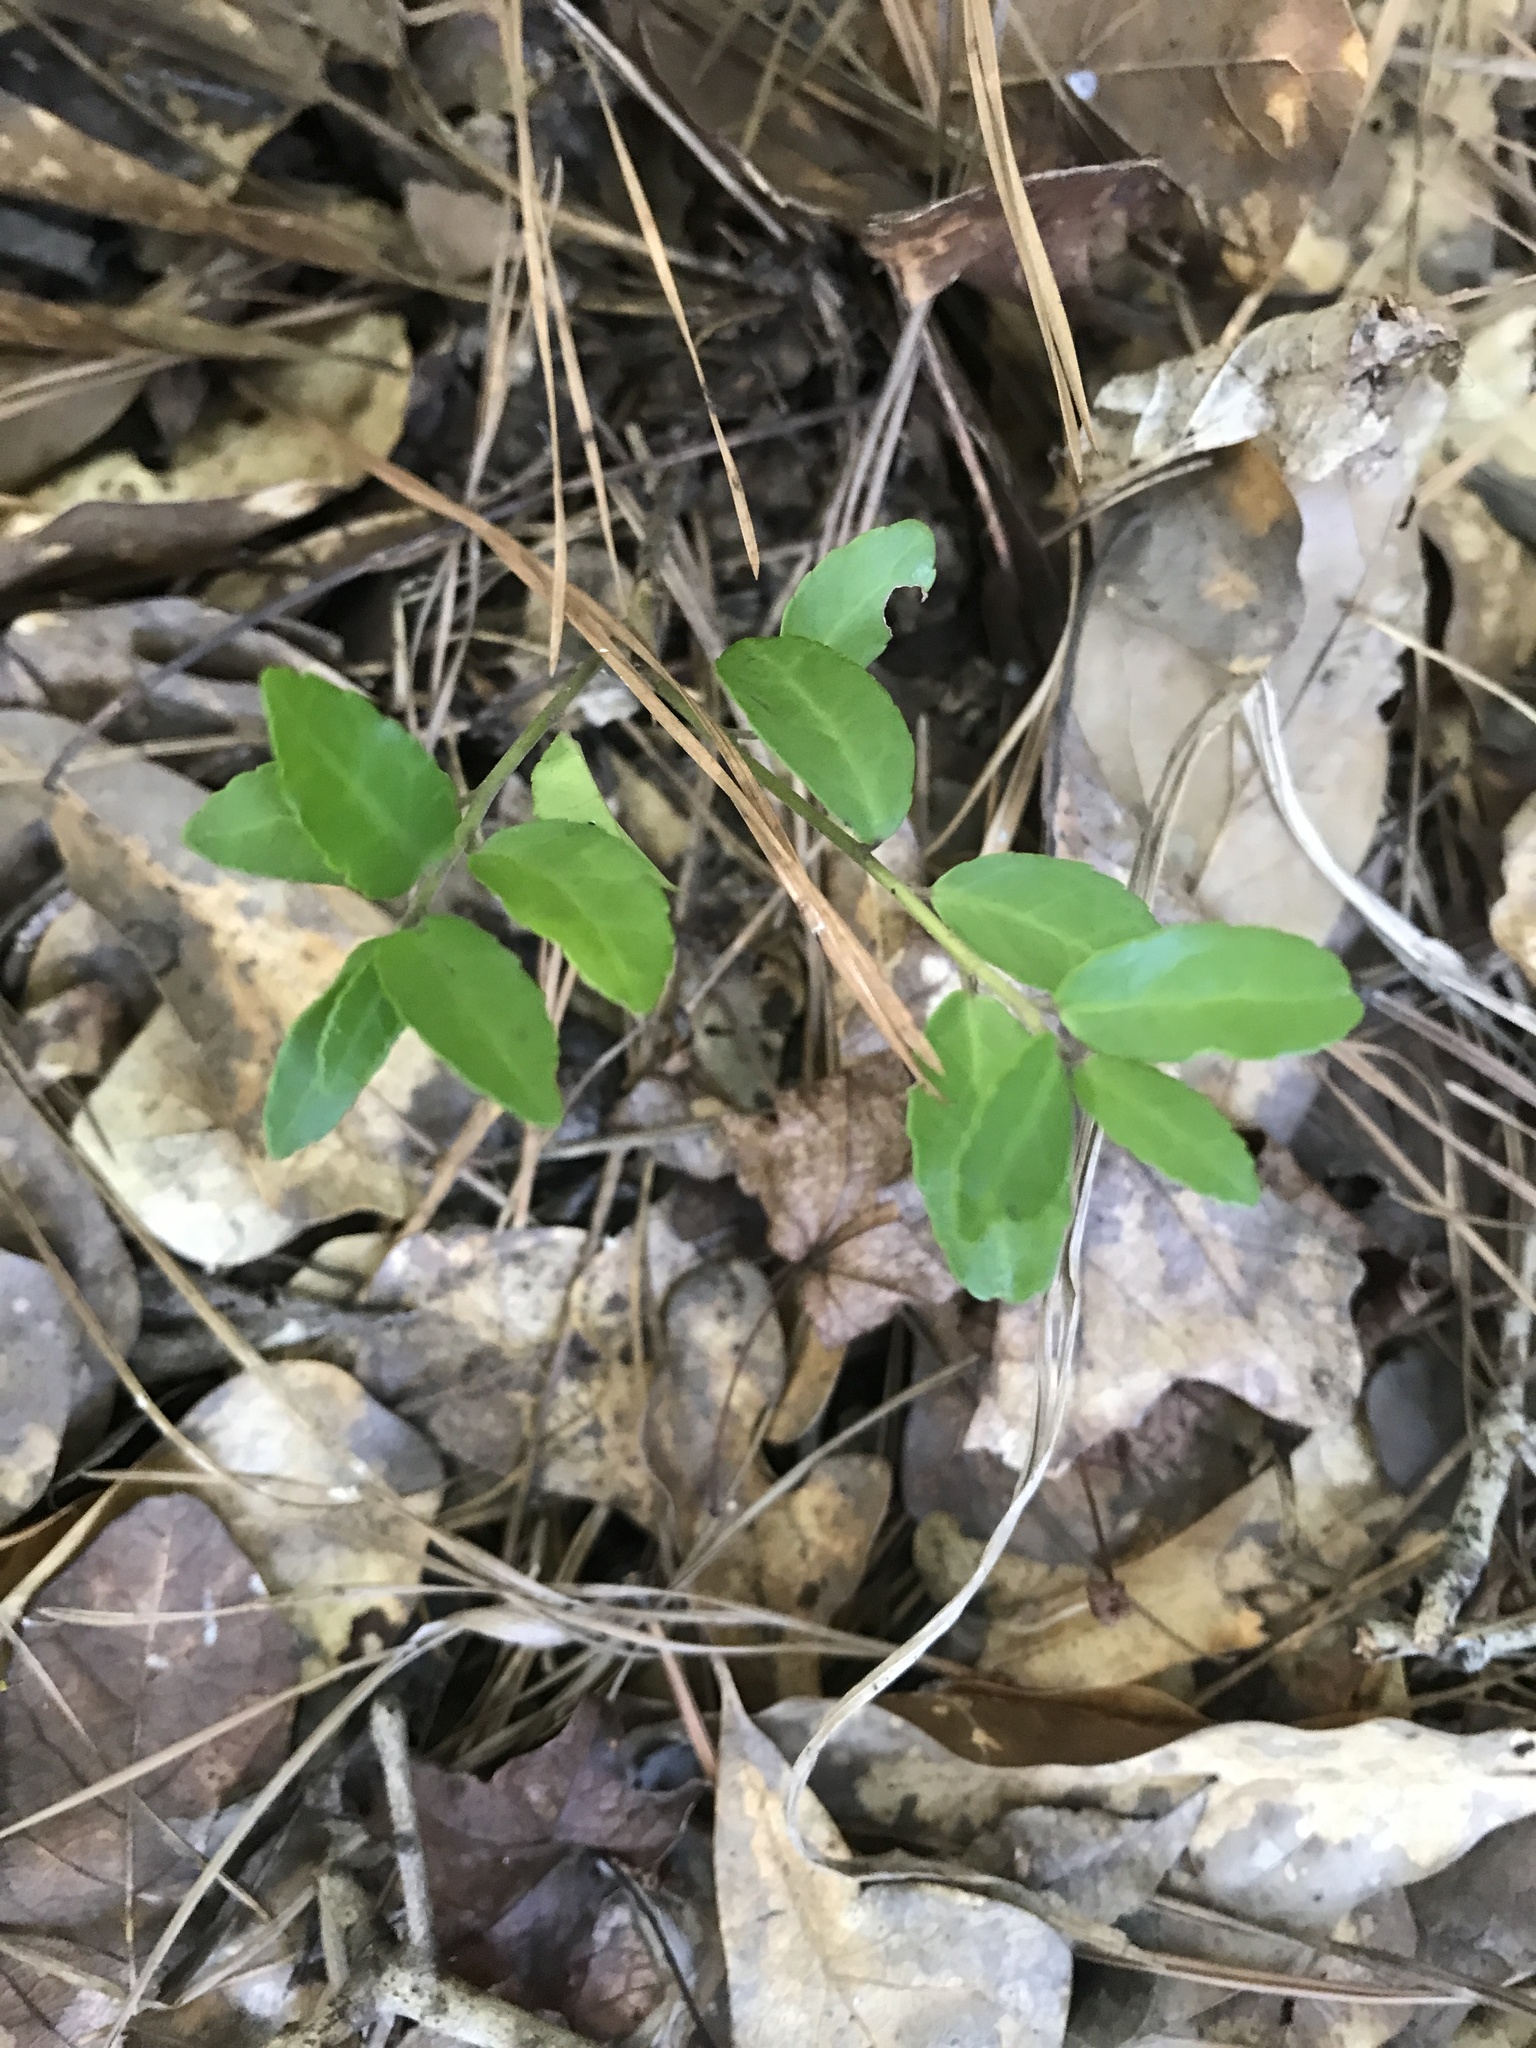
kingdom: Plantae
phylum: Tracheophyta
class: Magnoliopsida
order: Aquifoliales
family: Aquifoliaceae
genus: Ilex
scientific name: Ilex vomitoria
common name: Yaupon holly
